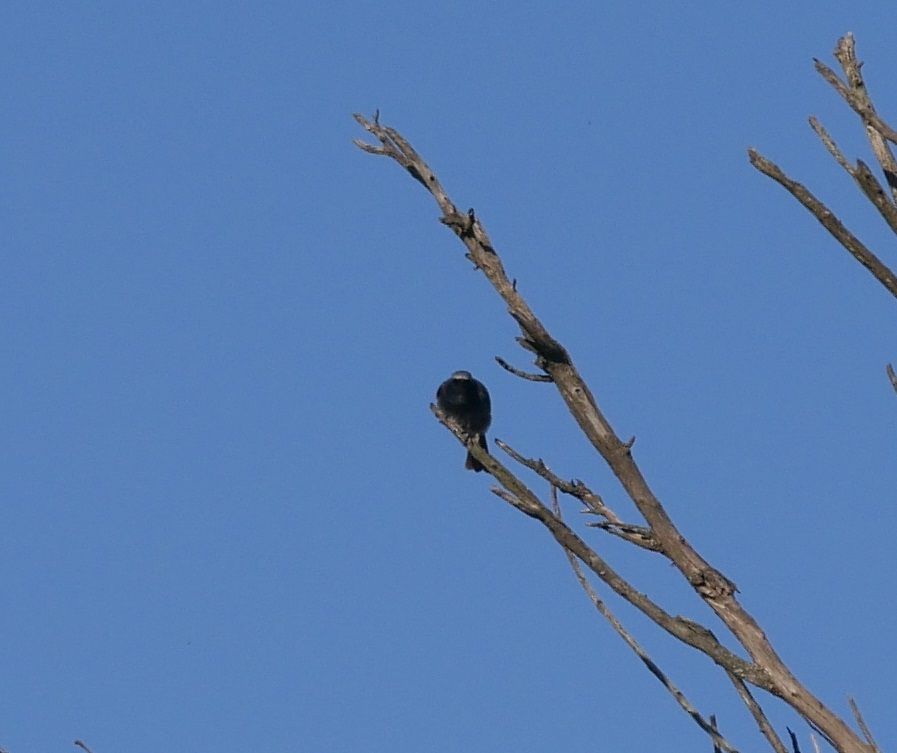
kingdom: Animalia
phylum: Chordata
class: Aves
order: Passeriformes
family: Muscicapidae
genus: Phoenicurus
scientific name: Phoenicurus ochruros
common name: Black redstart
